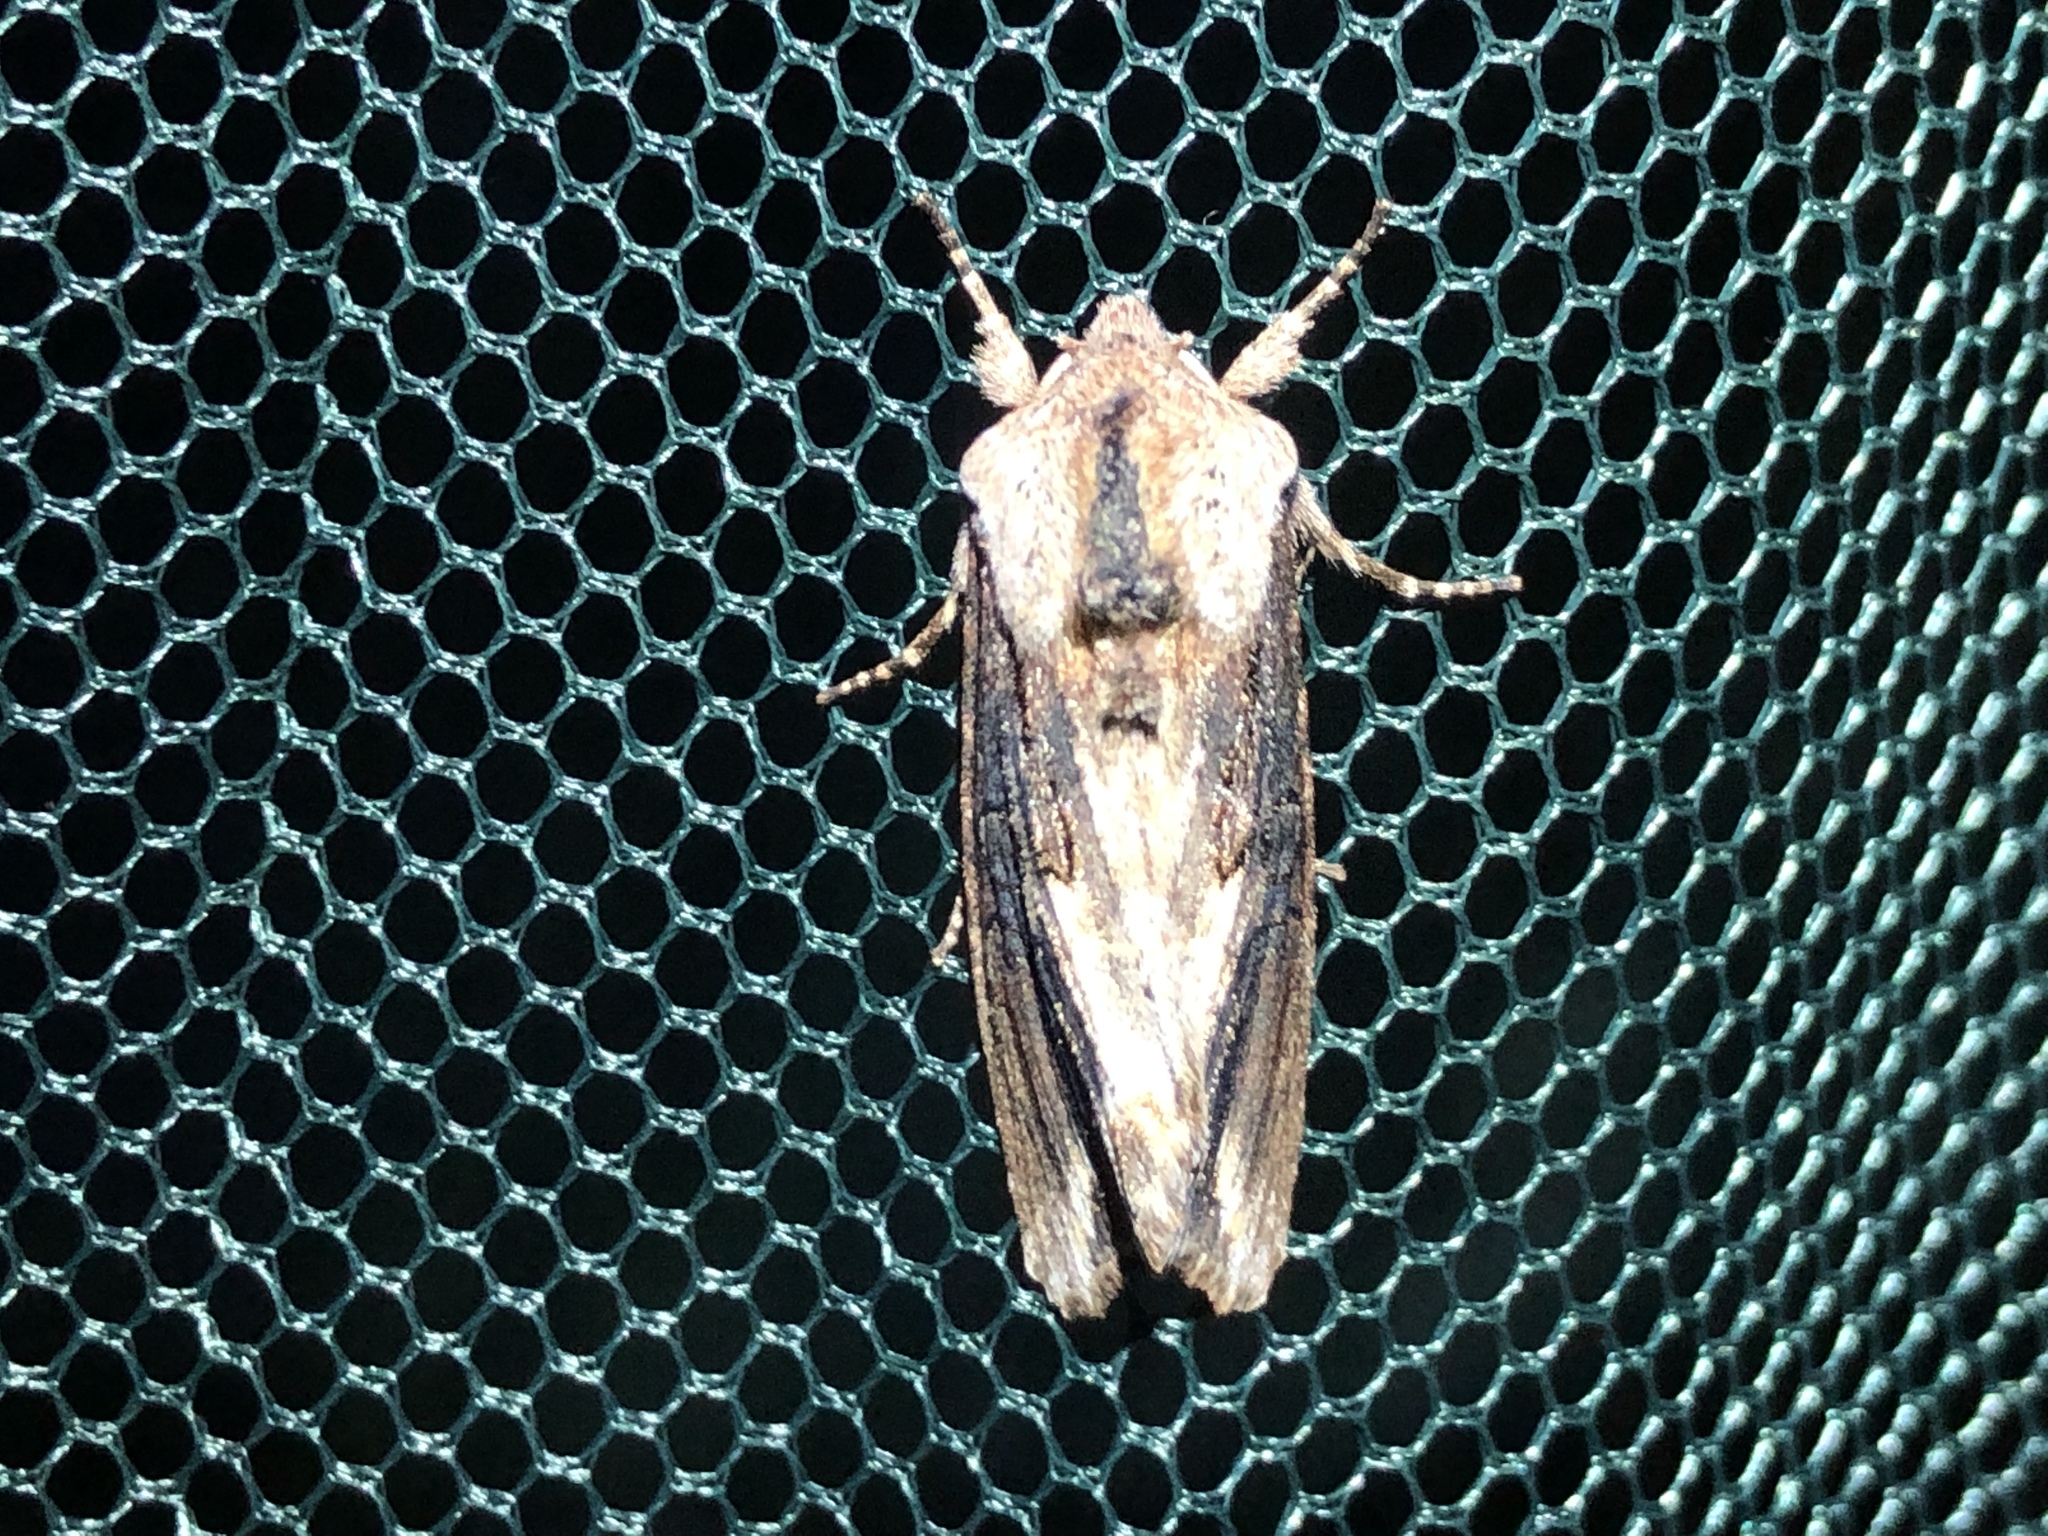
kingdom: Animalia
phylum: Arthropoda
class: Insecta
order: Lepidoptera
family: Noctuidae
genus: Egira
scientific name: Egira conspicillaris
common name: Silver cloud
